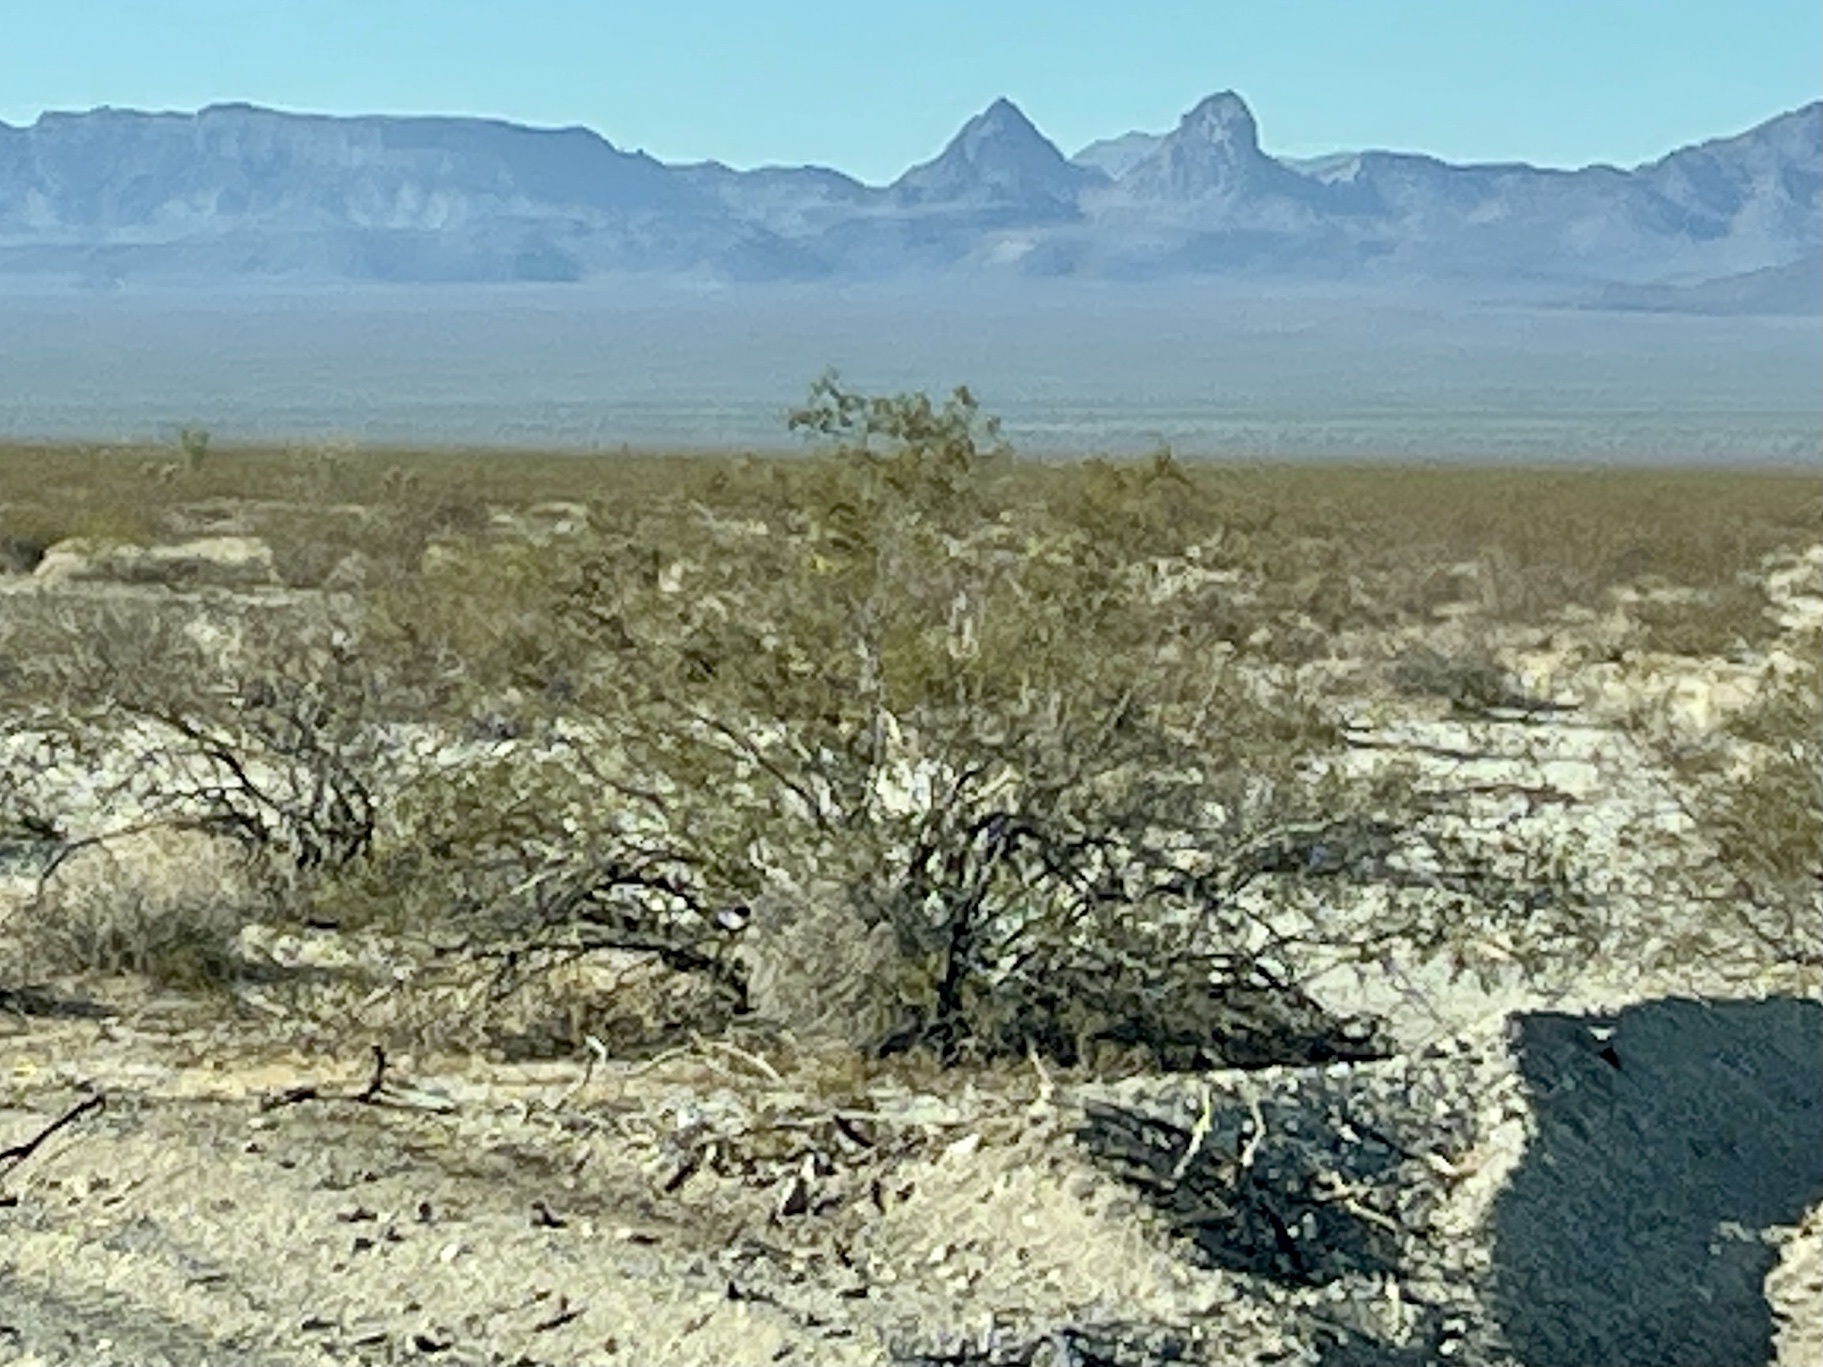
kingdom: Plantae
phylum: Tracheophyta
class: Magnoliopsida
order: Zygophyllales
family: Zygophyllaceae
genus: Larrea
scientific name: Larrea tridentata
